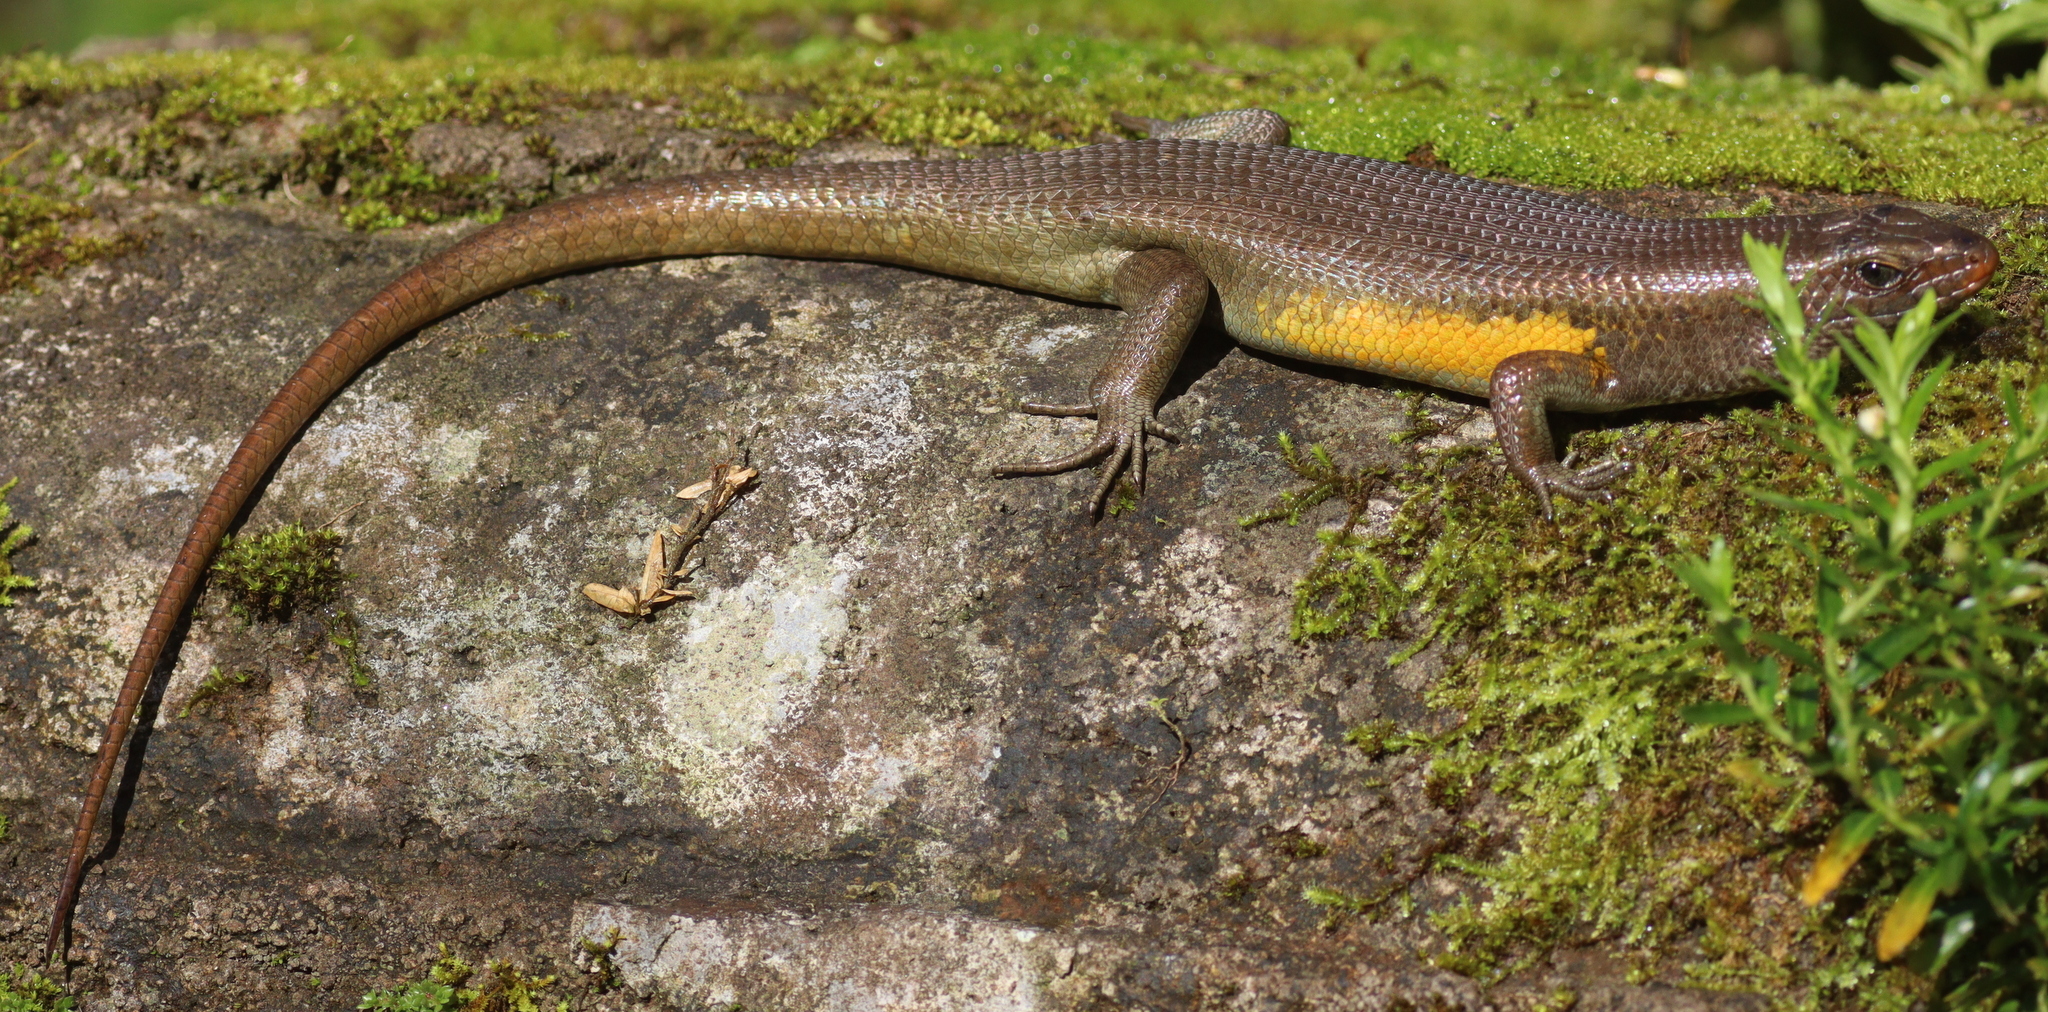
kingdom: Animalia
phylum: Chordata
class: Squamata
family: Scincidae
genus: Eutropis
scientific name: Eutropis multifasciata
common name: Common mabuya
